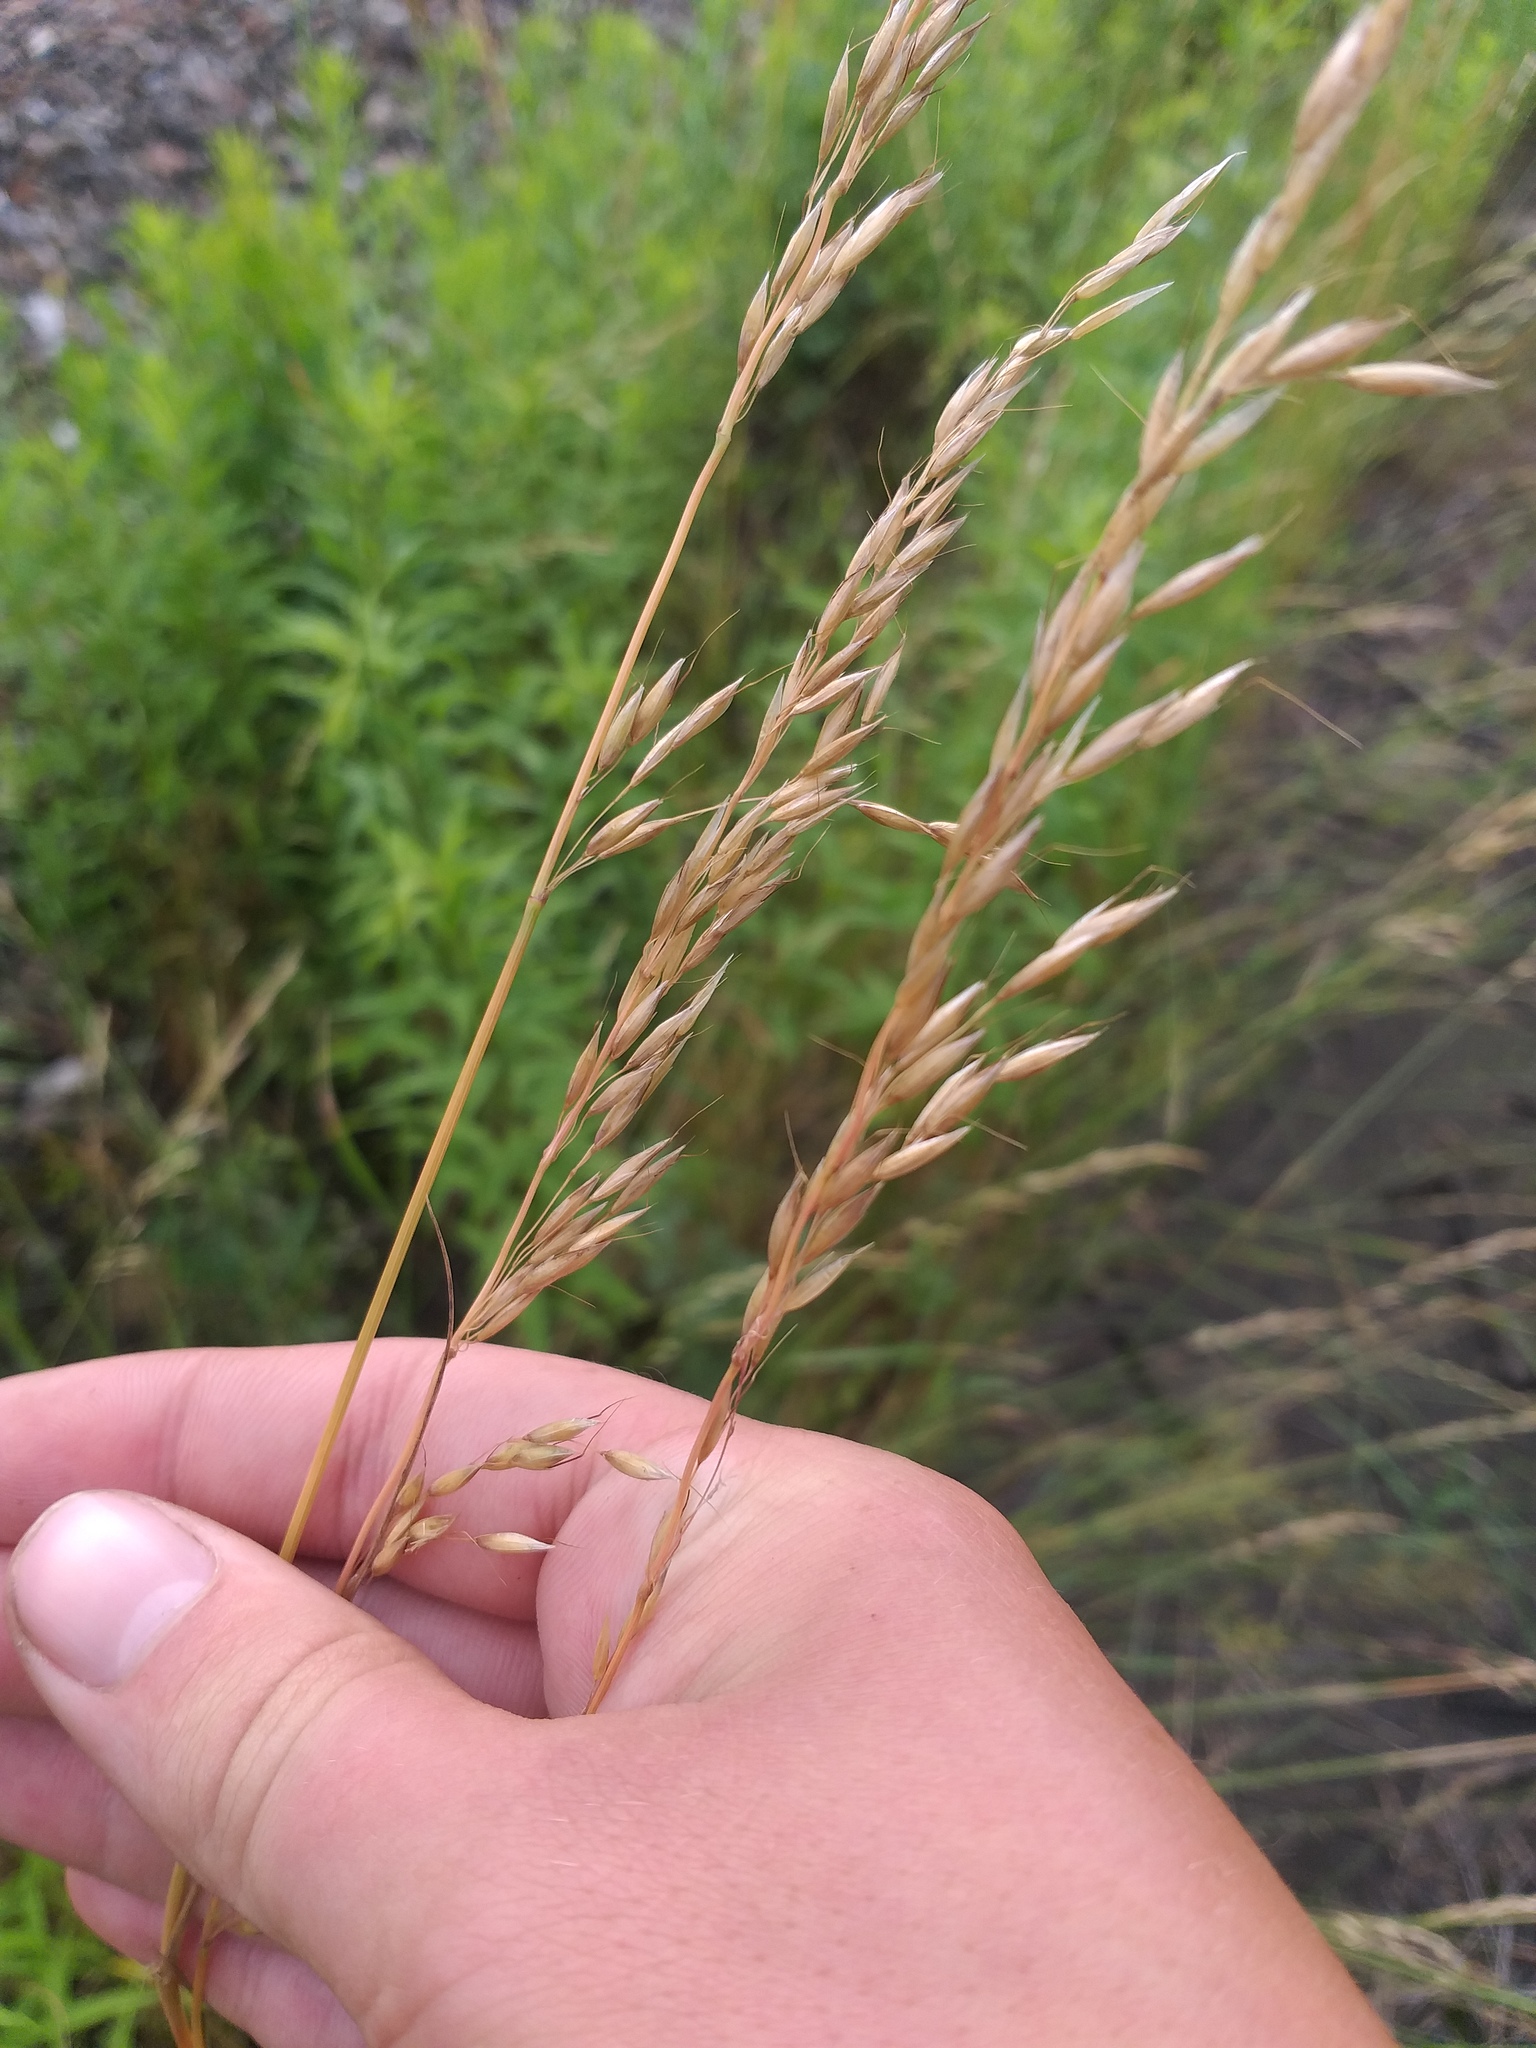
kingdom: Plantae
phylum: Tracheophyta
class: Liliopsida
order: Poales
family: Poaceae
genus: Arrhenatherum
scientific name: Arrhenatherum elatius
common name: Tall oatgrass
